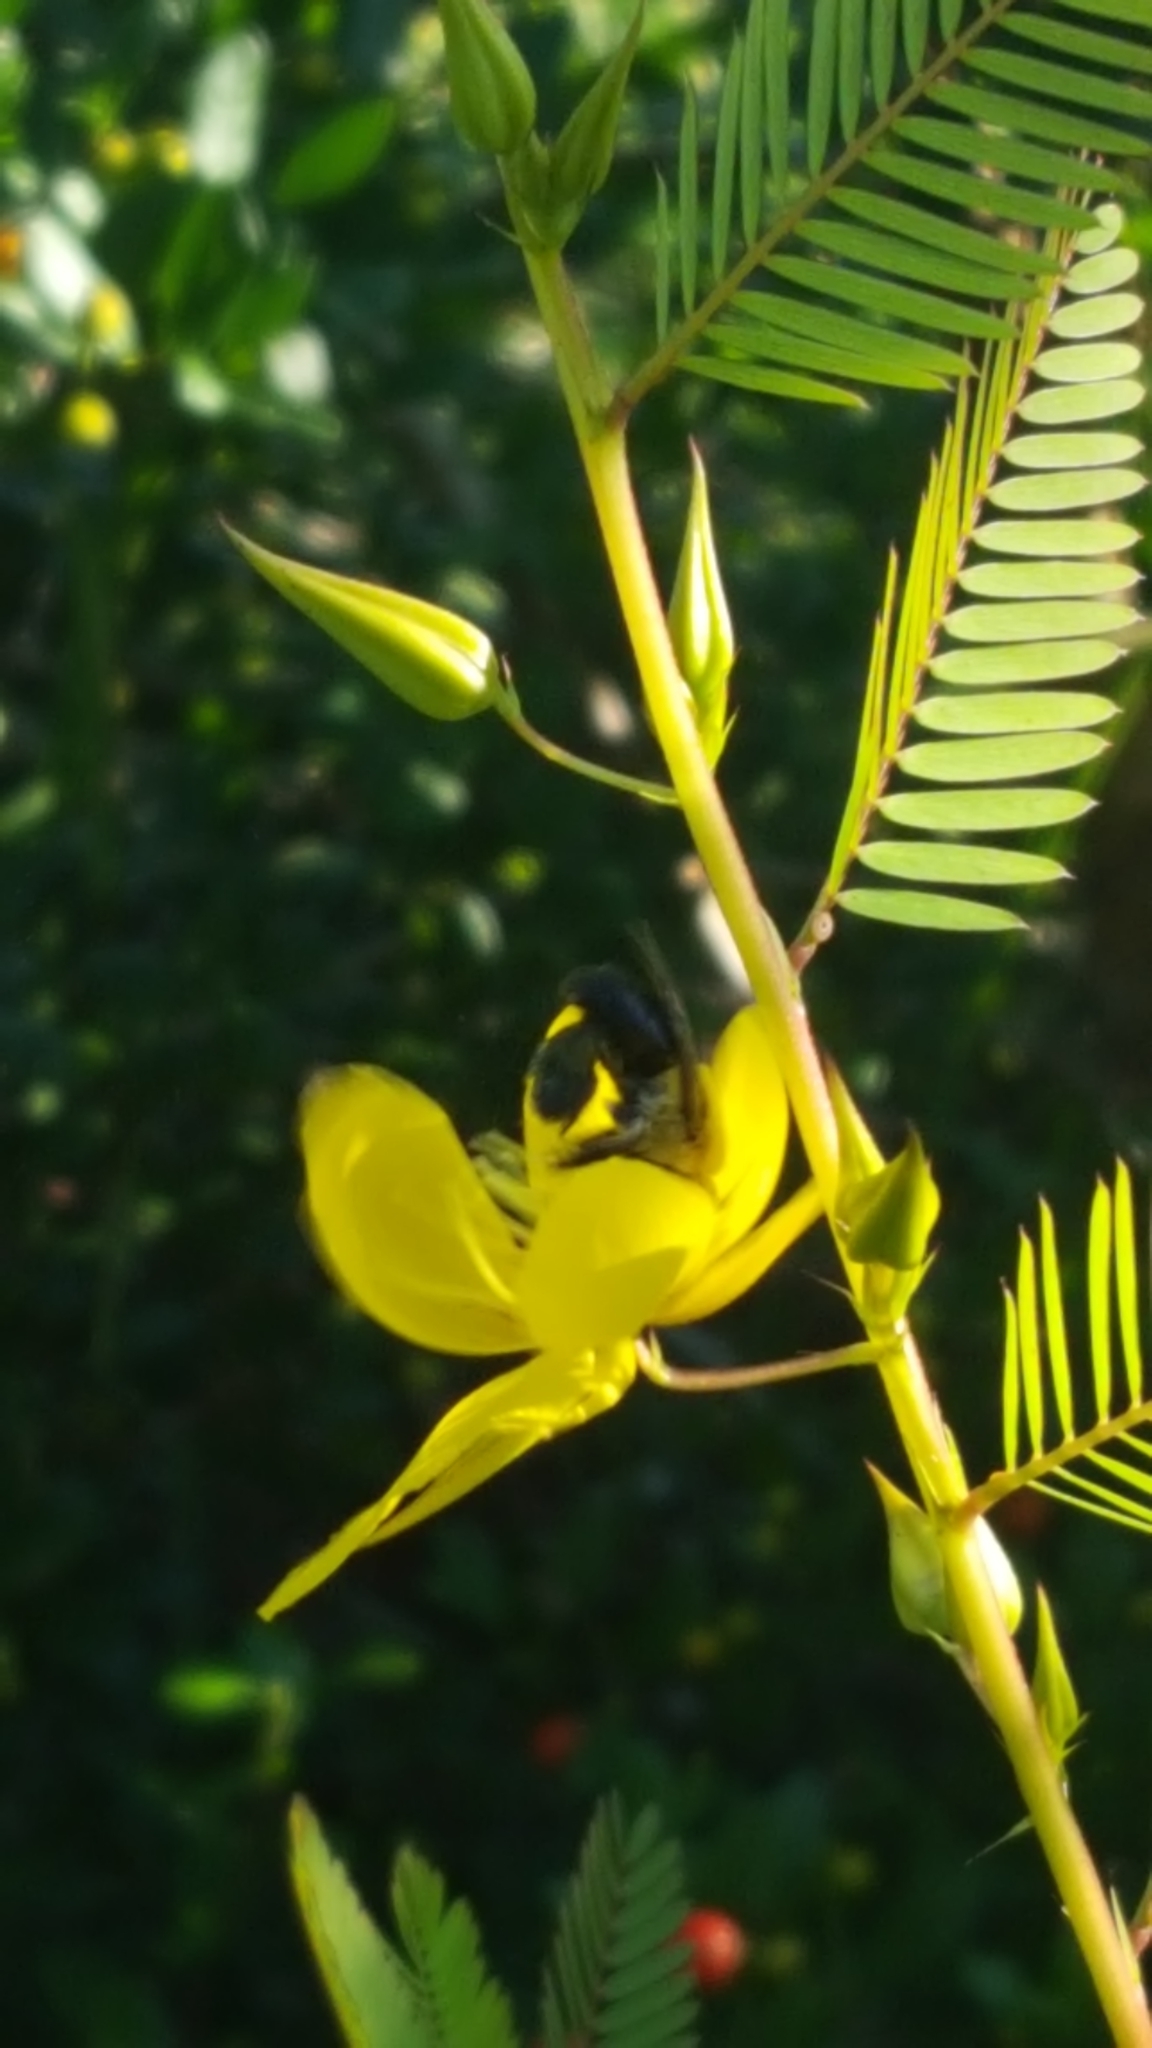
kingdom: Animalia
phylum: Arthropoda
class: Insecta
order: Hymenoptera
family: Apidae
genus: Centris
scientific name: Centris nitida
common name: Oil-collecting bee
